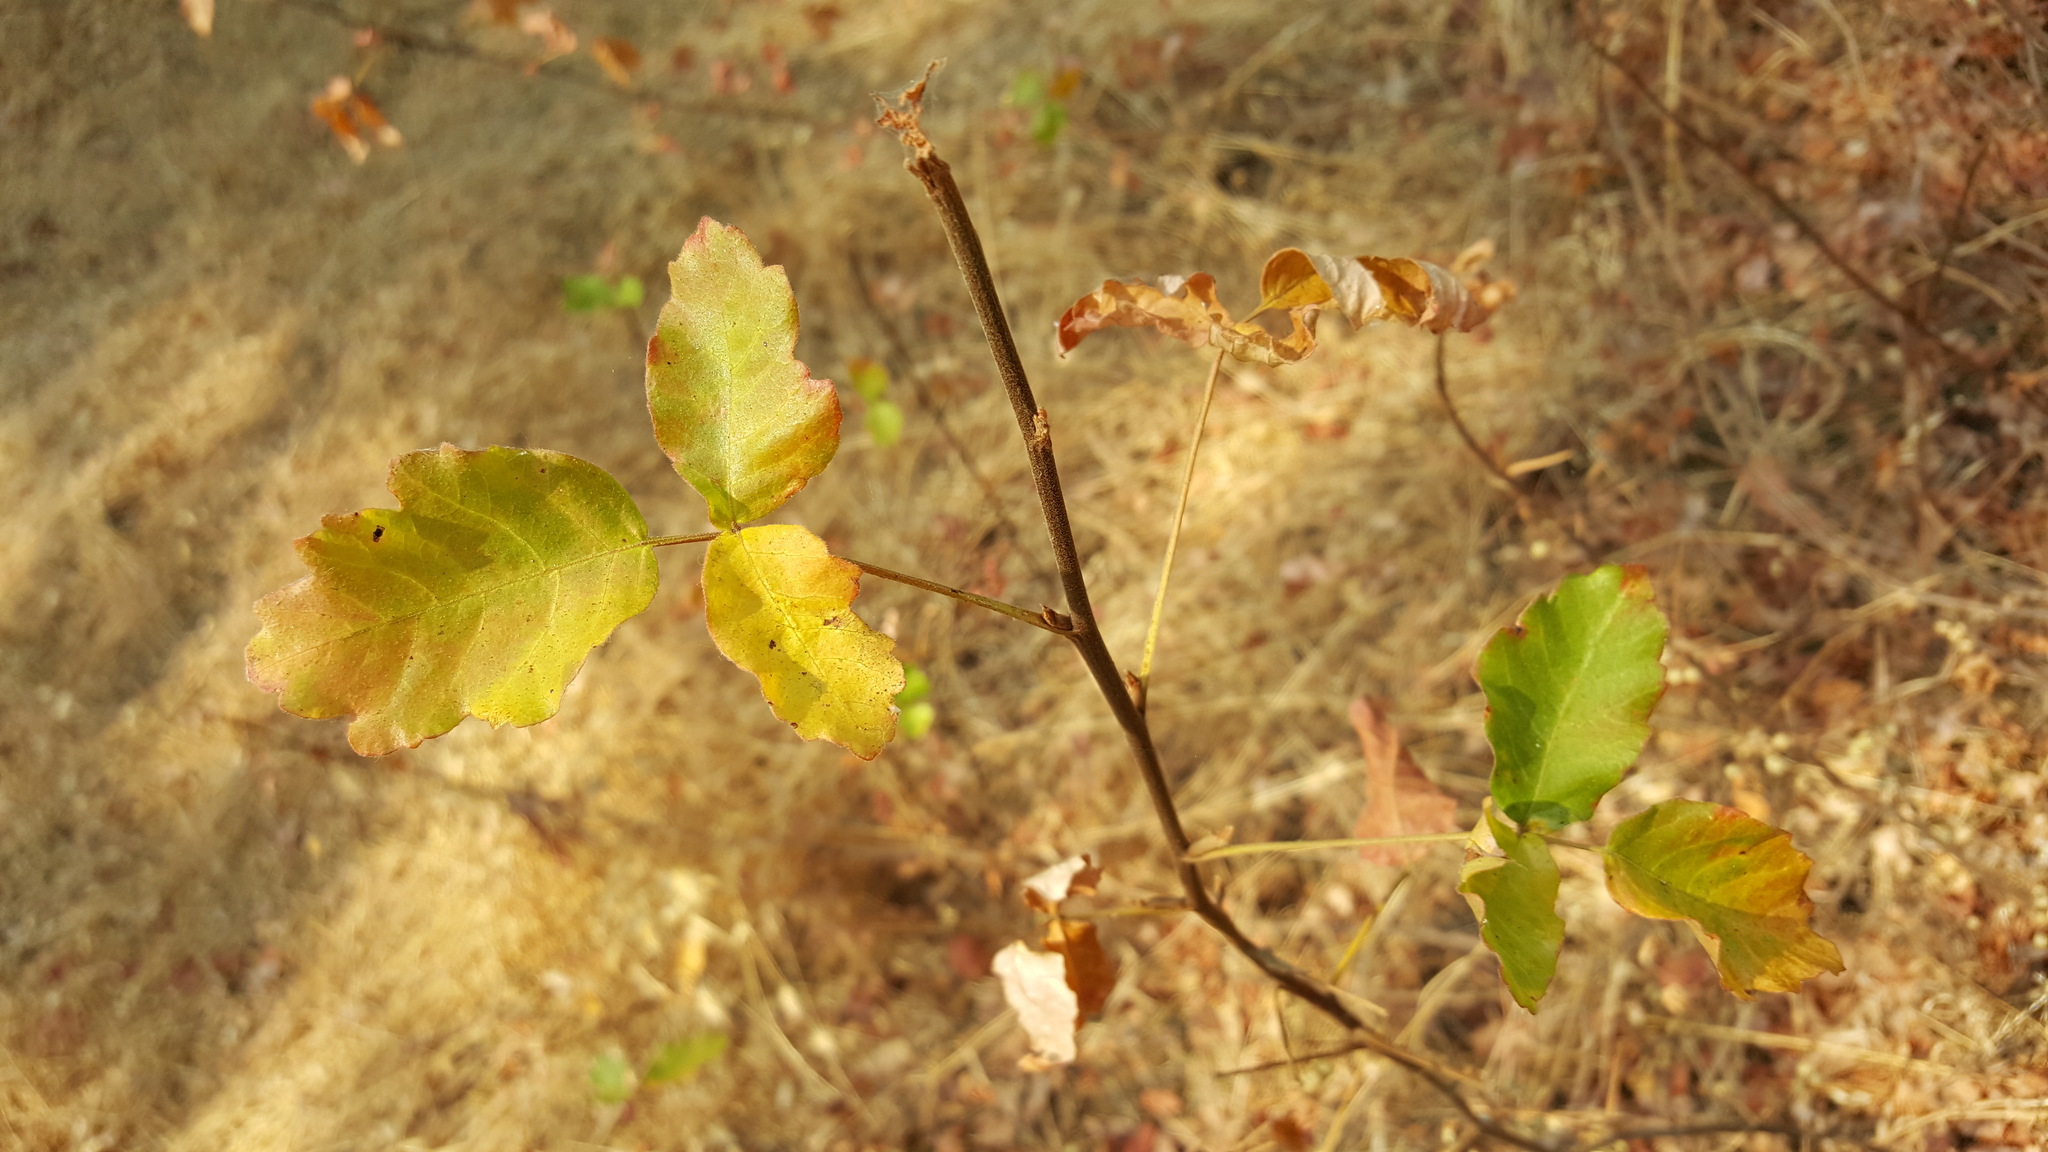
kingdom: Plantae
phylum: Tracheophyta
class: Magnoliopsida
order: Sapindales
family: Anacardiaceae
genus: Toxicodendron
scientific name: Toxicodendron diversilobum
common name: Pacific poison-oak
